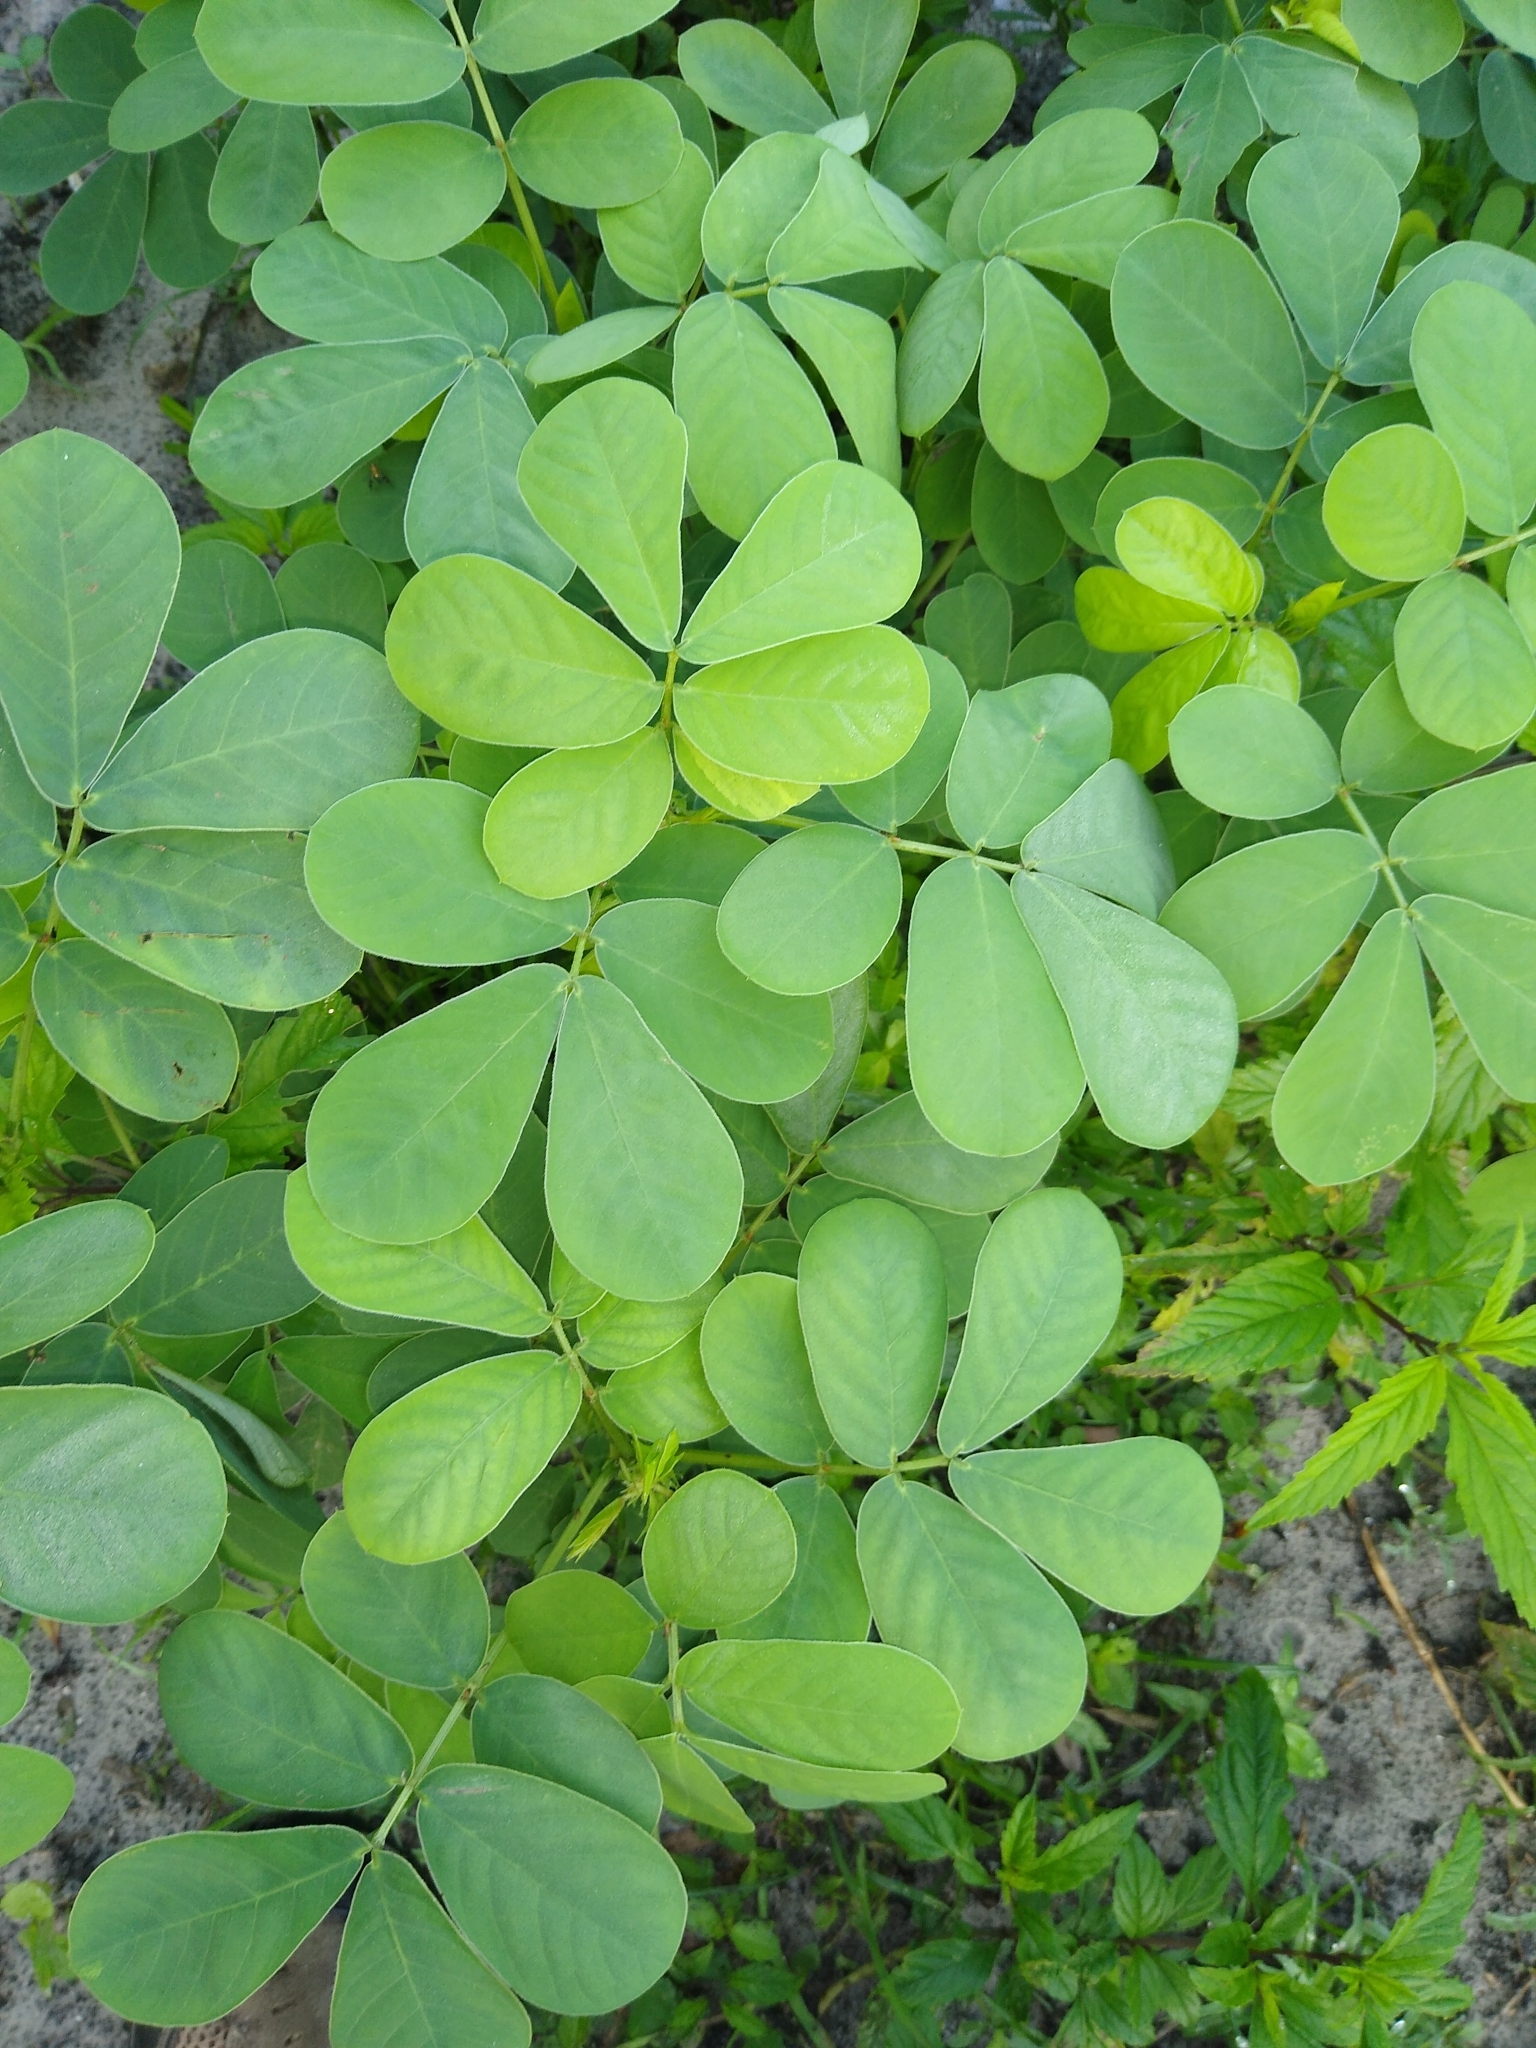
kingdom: Plantae
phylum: Tracheophyta
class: Magnoliopsida
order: Fabales
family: Fabaceae
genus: Senna
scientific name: Senna obtusifolia
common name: Java-bean
